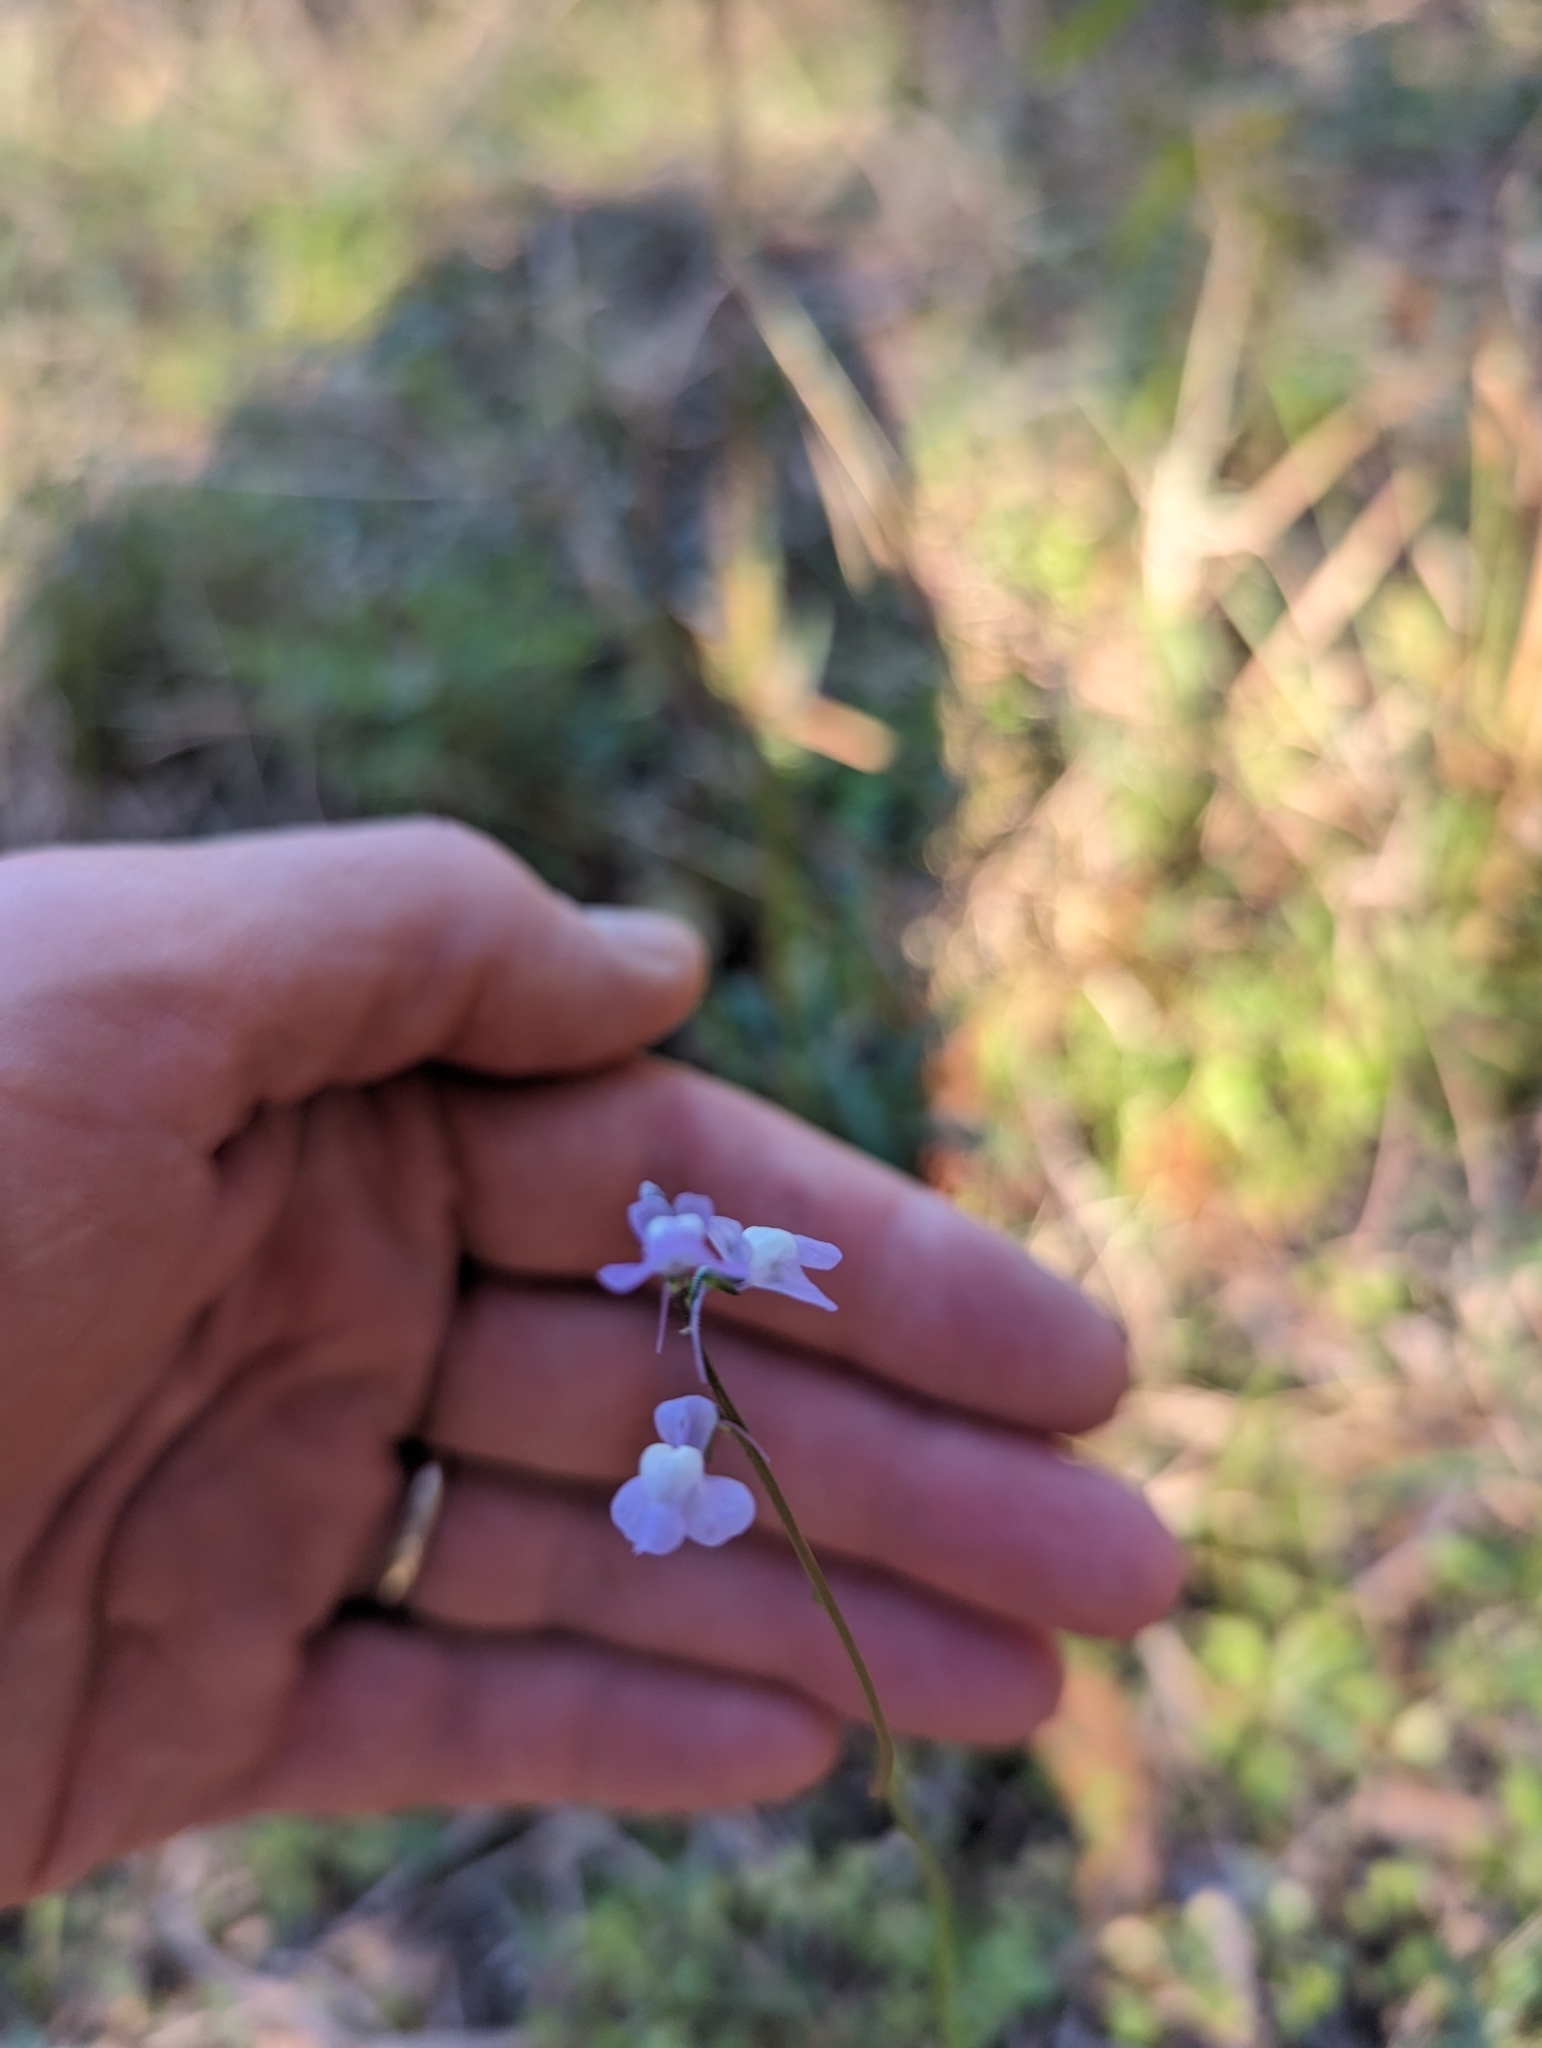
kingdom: Plantae
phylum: Tracheophyta
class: Magnoliopsida
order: Lamiales
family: Plantaginaceae
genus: Nuttallanthus
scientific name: Nuttallanthus canadensis
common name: Blue toadflax
